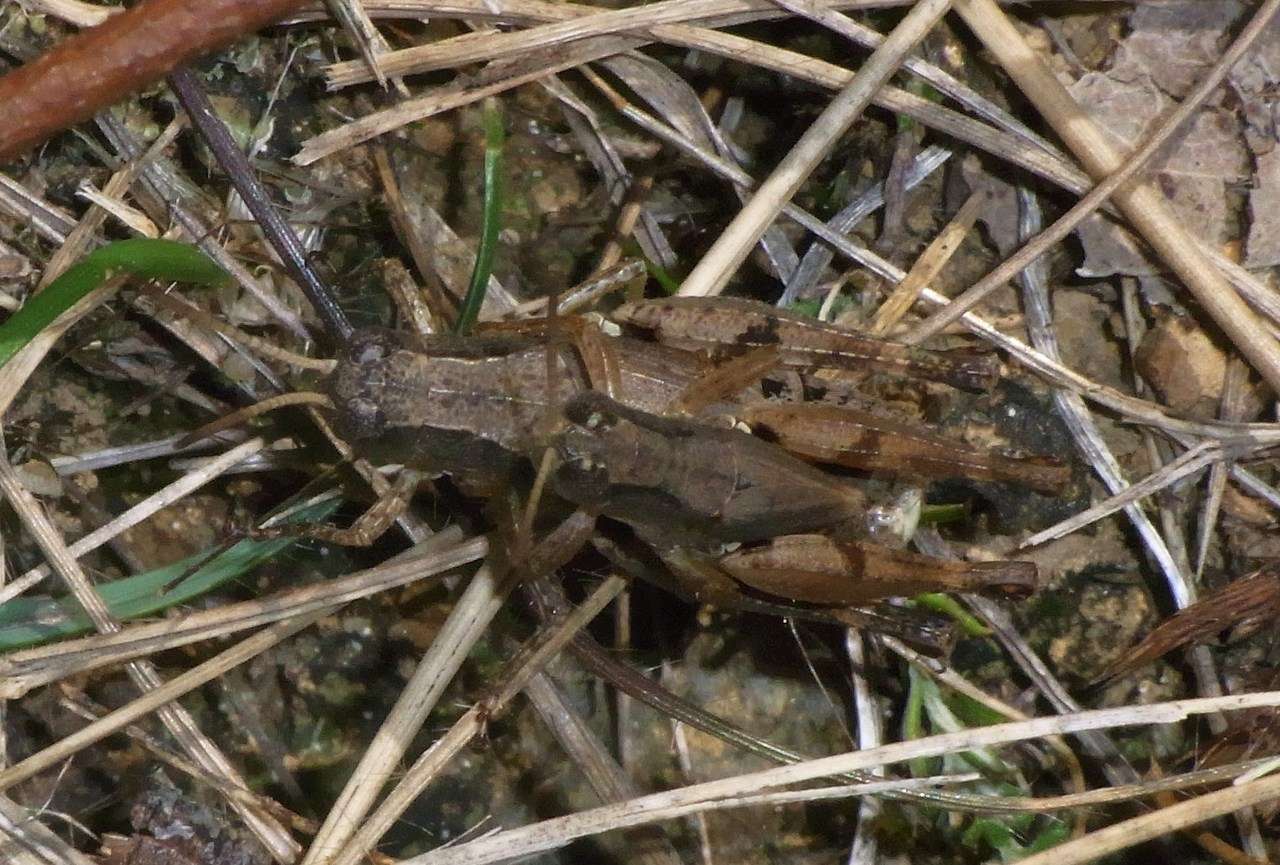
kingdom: Animalia
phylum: Arthropoda
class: Insecta
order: Orthoptera
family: Acrididae
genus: Phaulacridium
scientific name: Phaulacridium vittatum
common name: Wingless grasshopper
